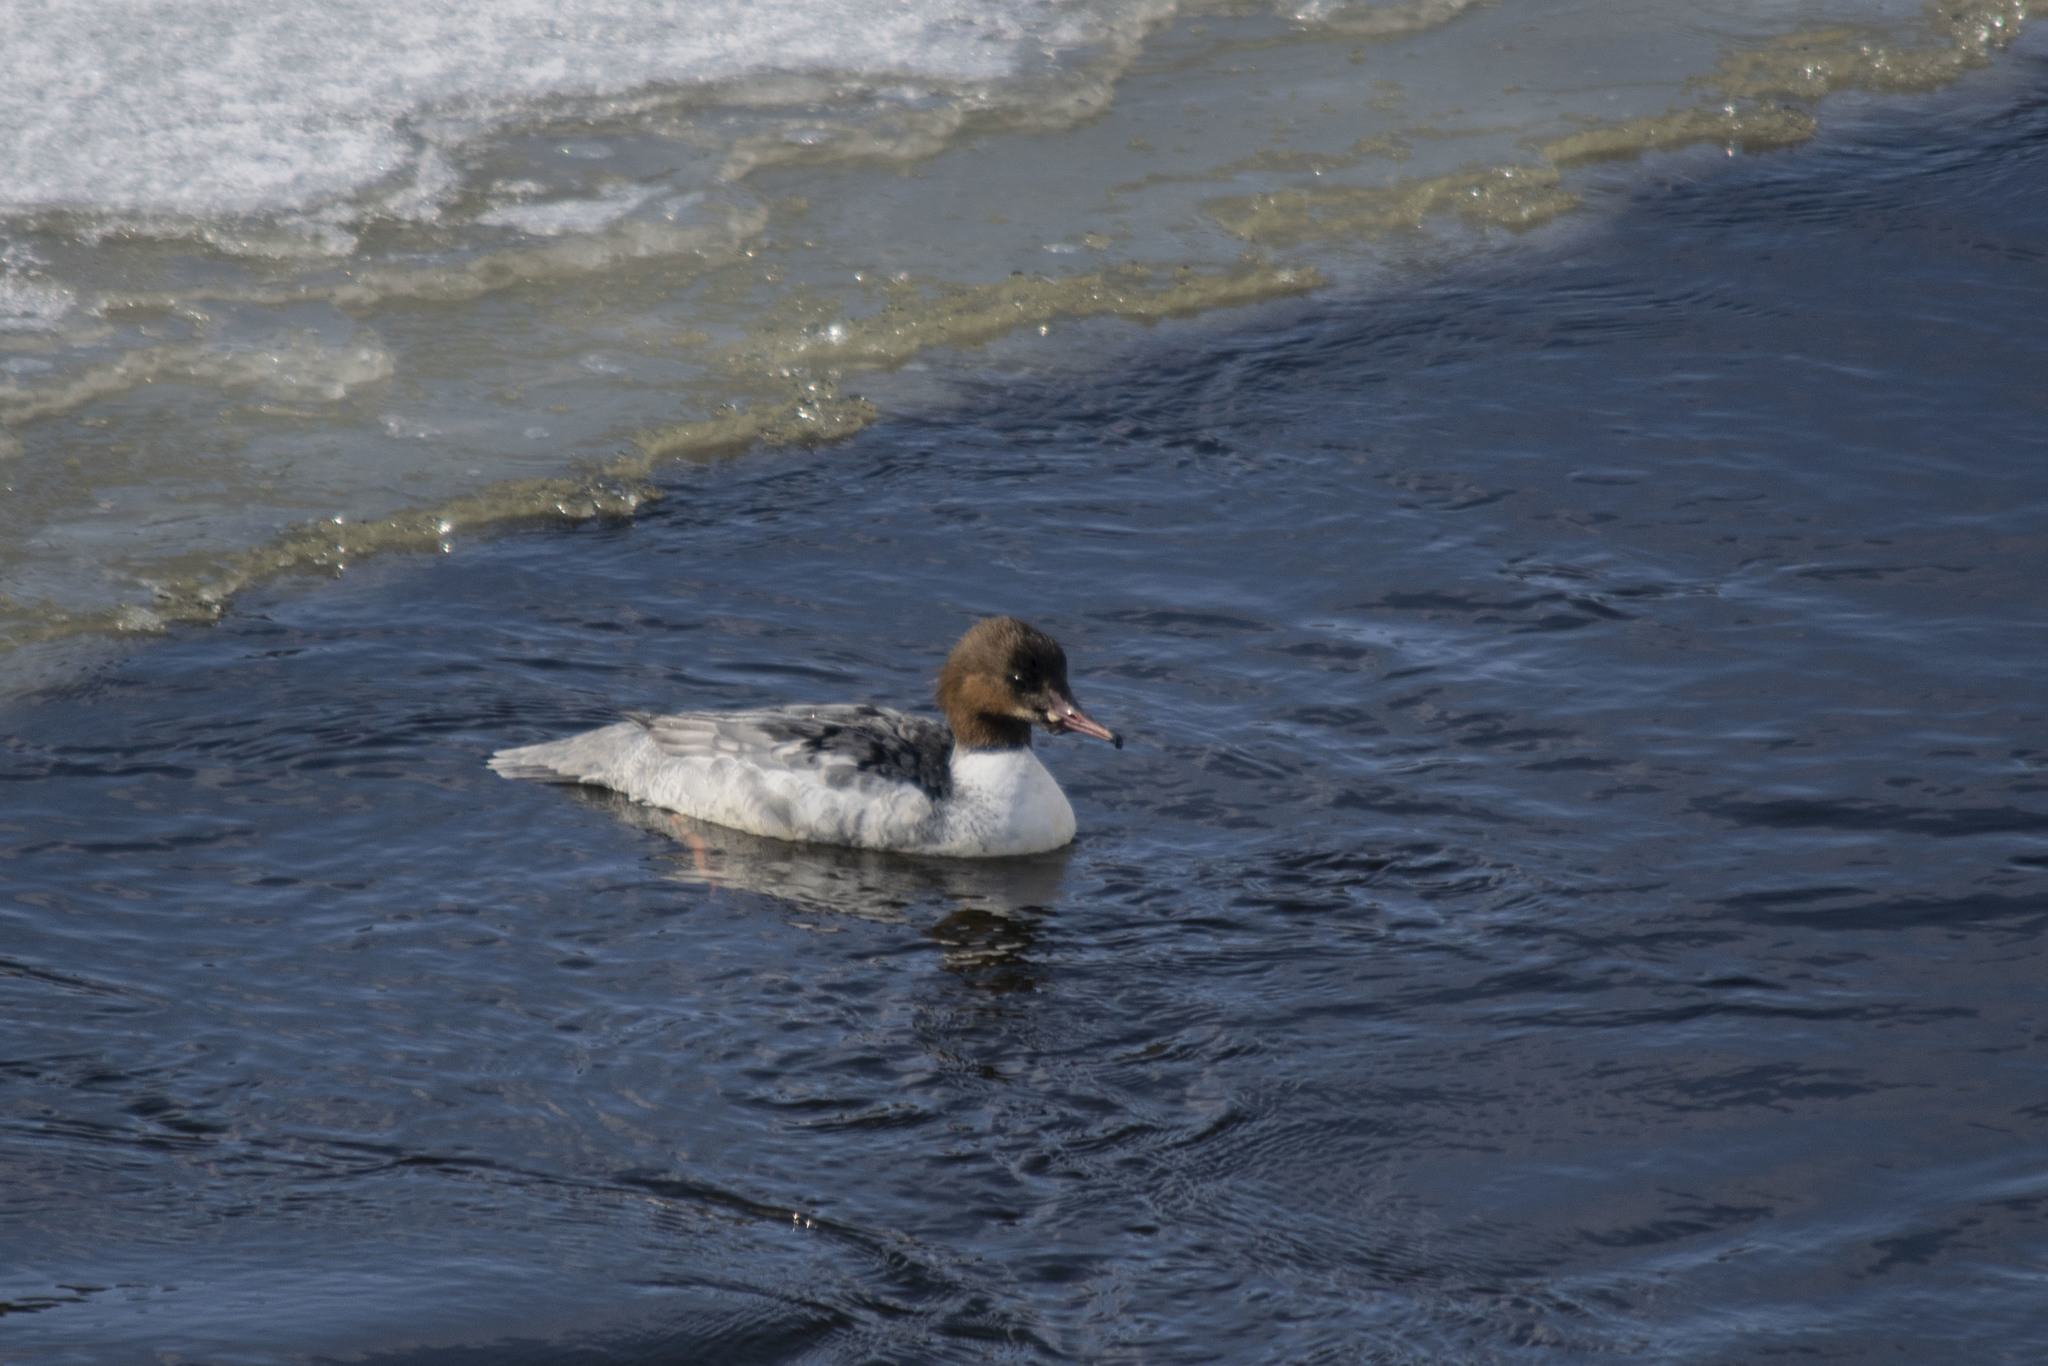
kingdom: Animalia
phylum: Chordata
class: Aves
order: Anseriformes
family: Anatidae
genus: Mergus
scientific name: Mergus merganser
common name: Common merganser
